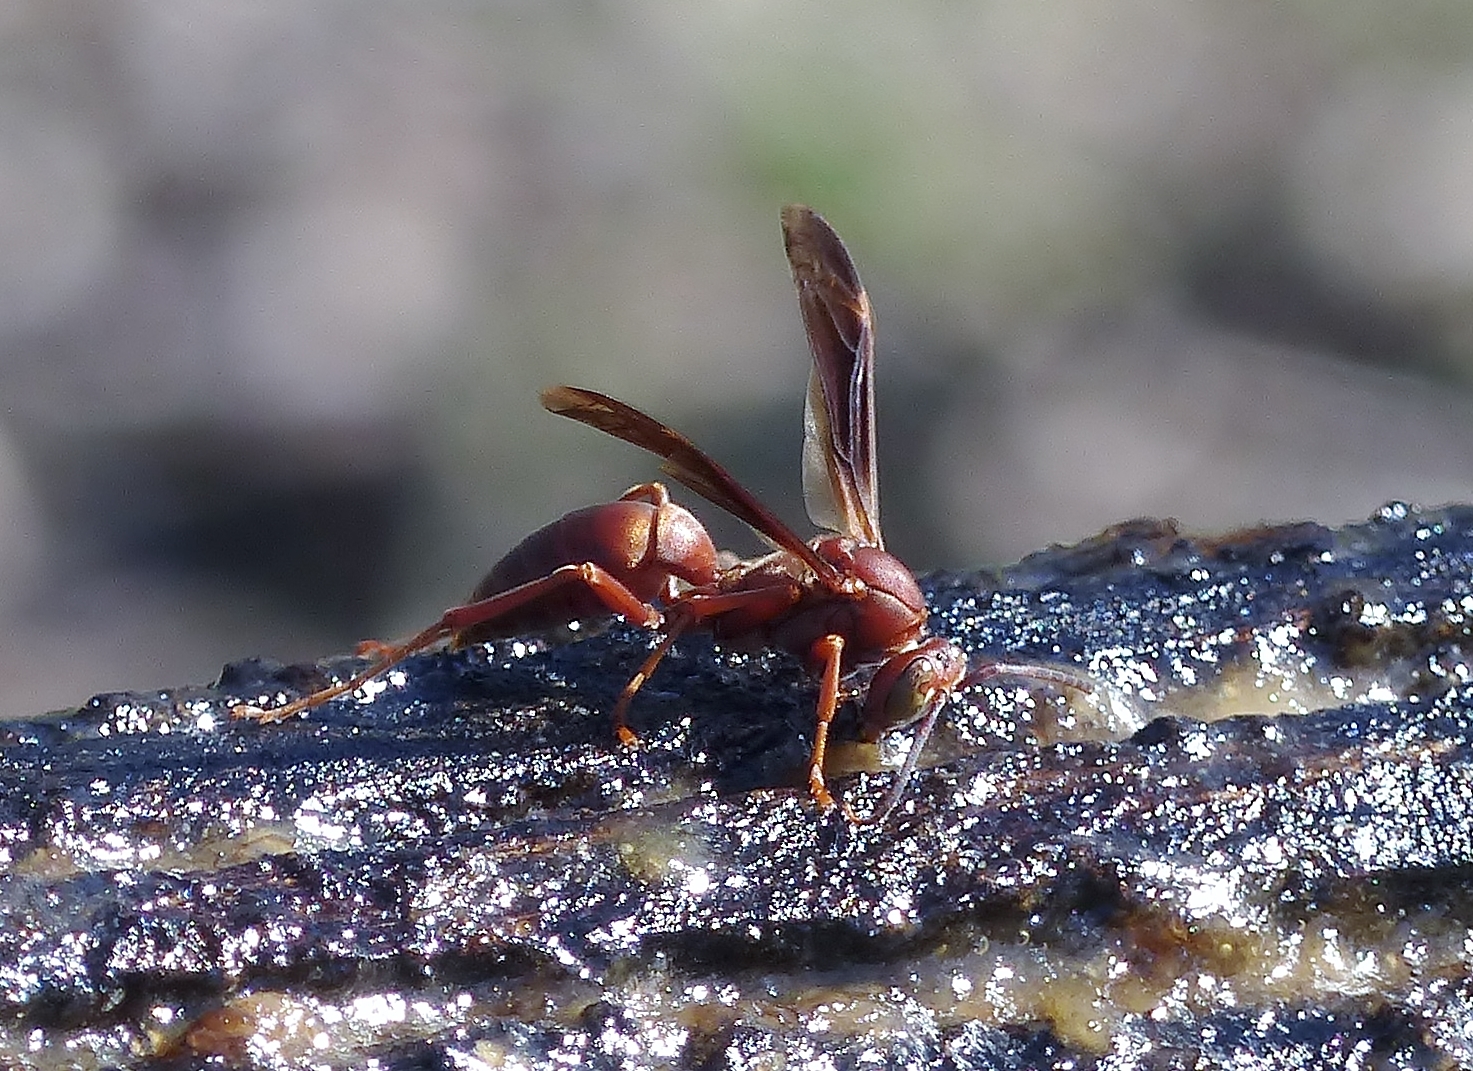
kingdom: Animalia
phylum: Arthropoda
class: Insecta
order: Hymenoptera
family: Vespidae
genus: Fuscopolistes
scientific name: Fuscopolistes
